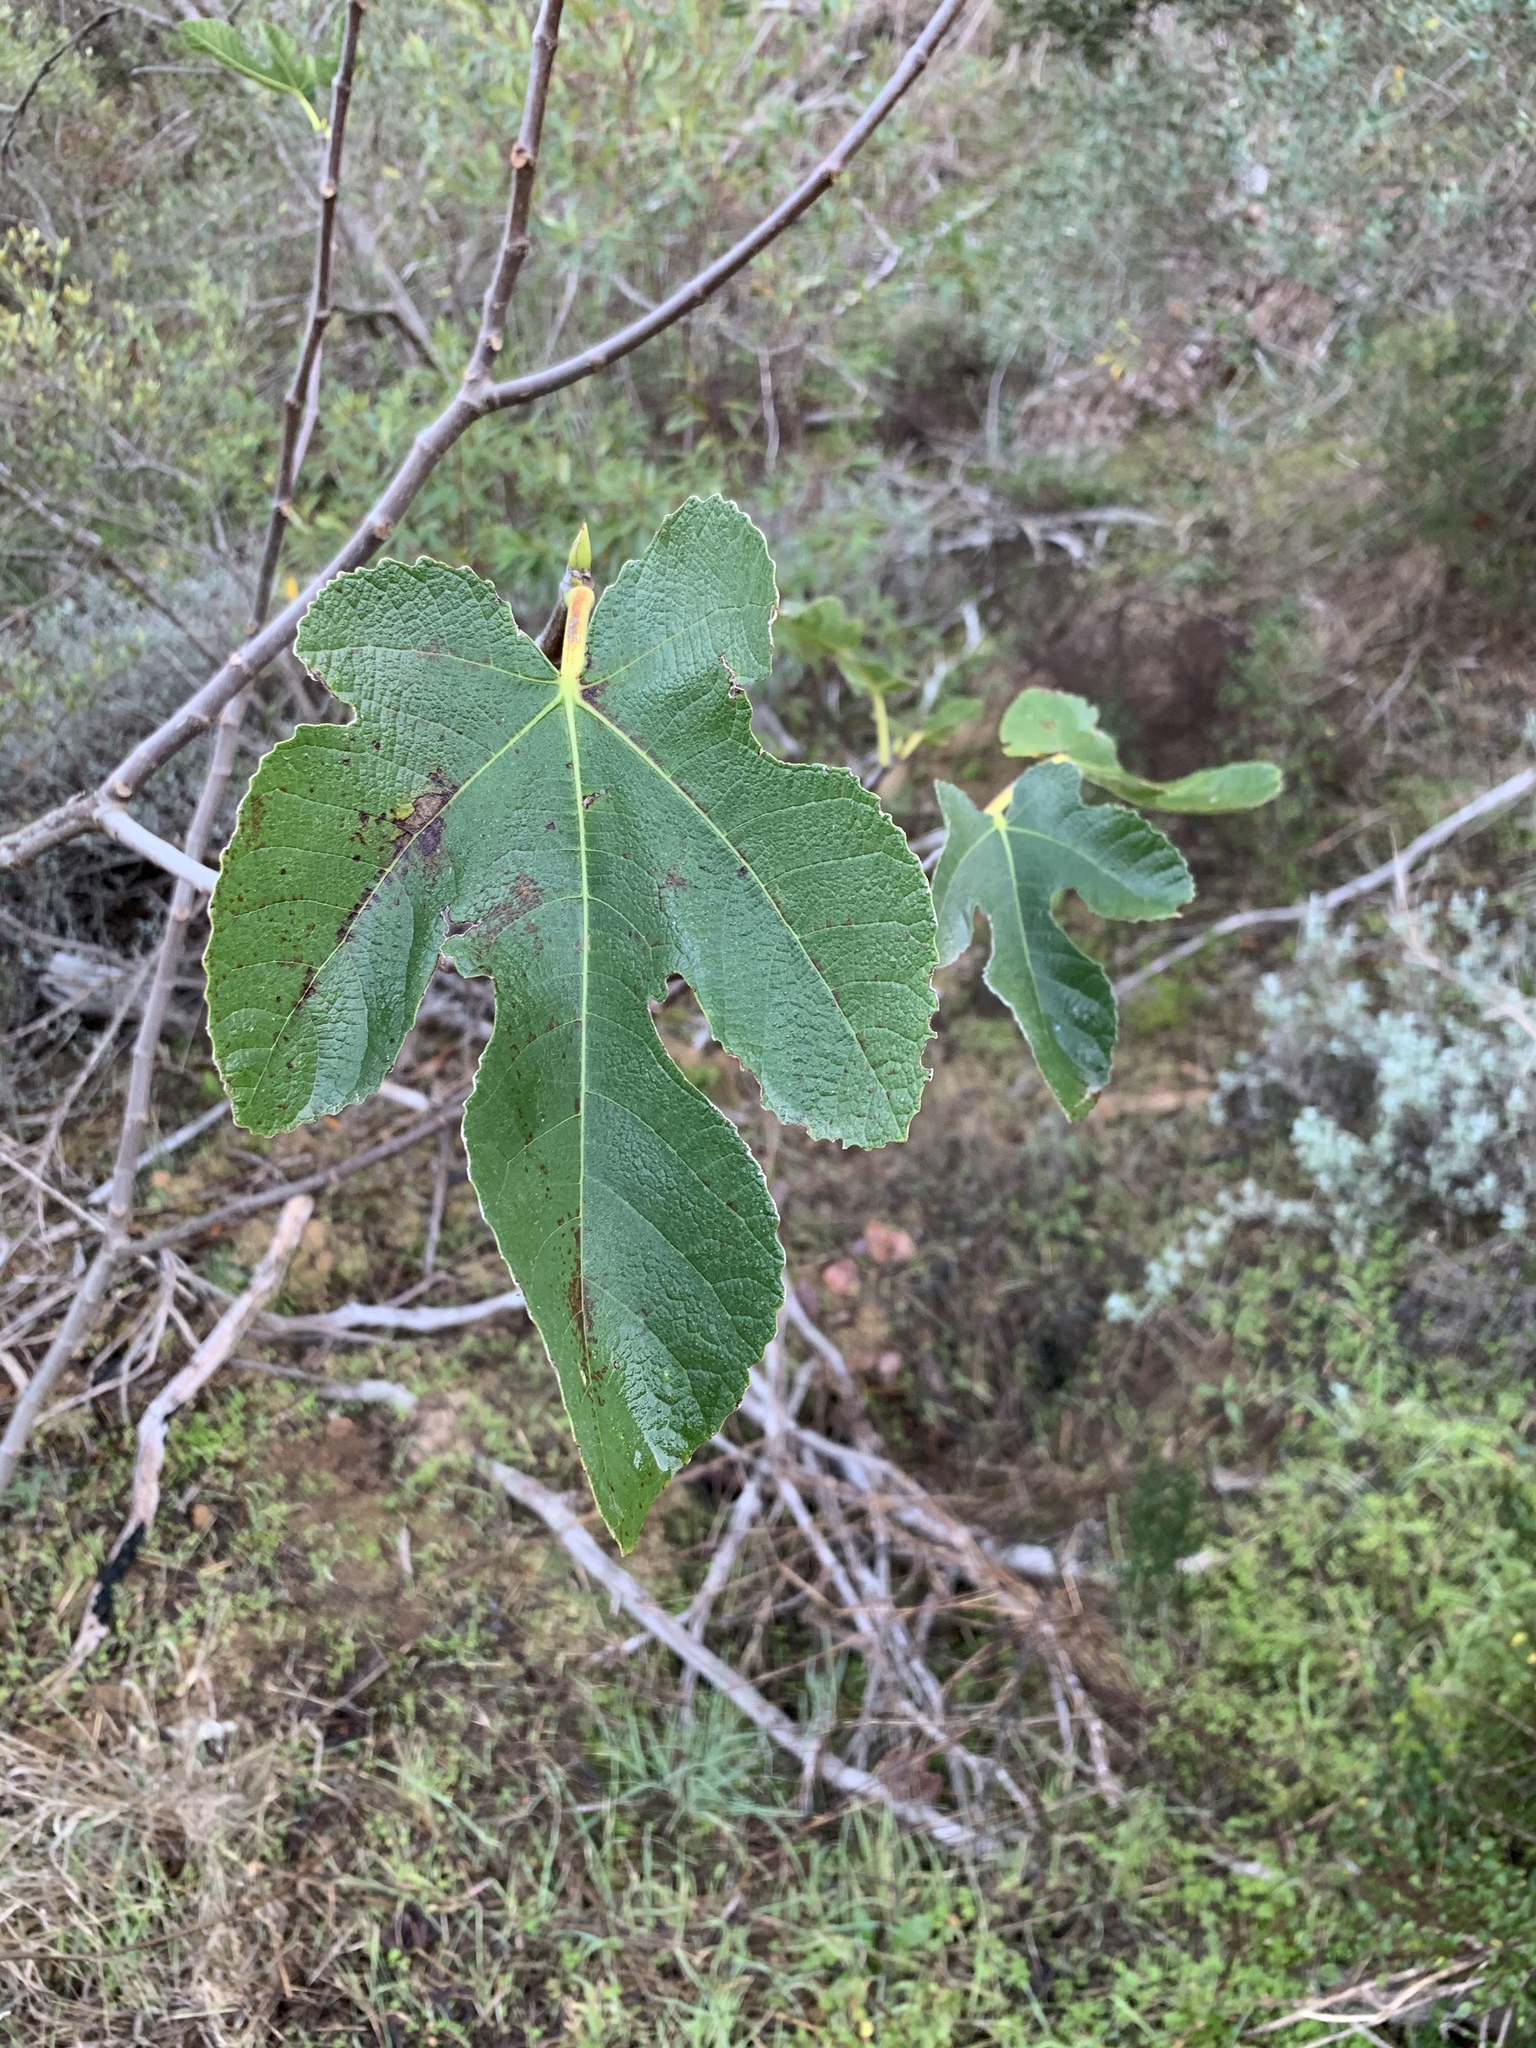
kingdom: Plantae
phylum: Tracheophyta
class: Magnoliopsida
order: Rosales
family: Moraceae
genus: Ficus
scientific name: Ficus carica
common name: Fig
